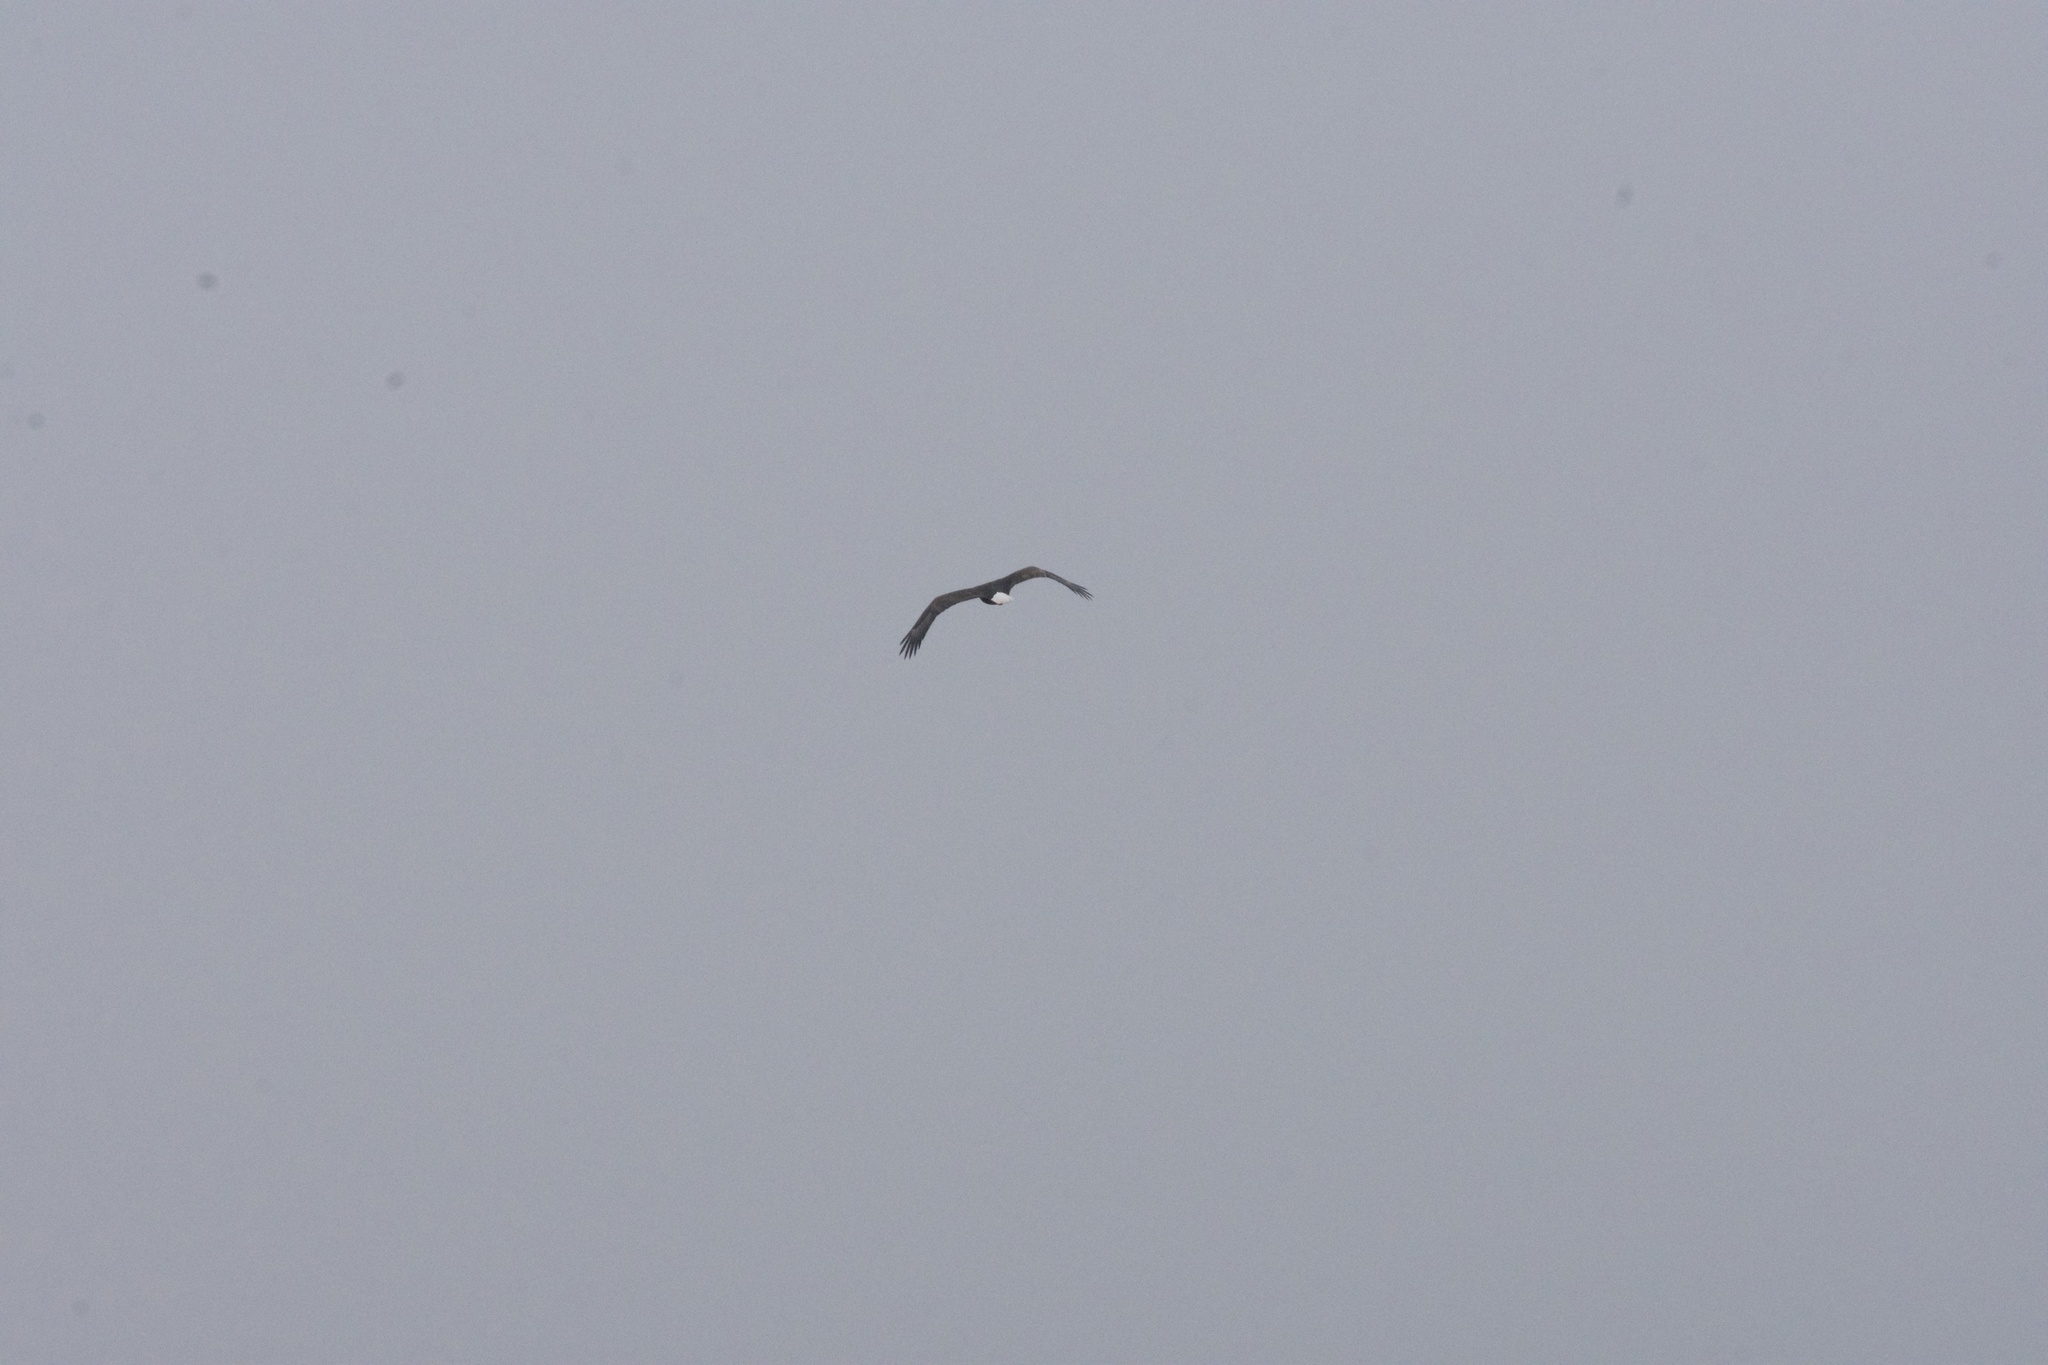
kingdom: Animalia
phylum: Chordata
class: Aves
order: Accipitriformes
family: Accipitridae
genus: Haliaeetus
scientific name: Haliaeetus leucocephalus
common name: Bald eagle
